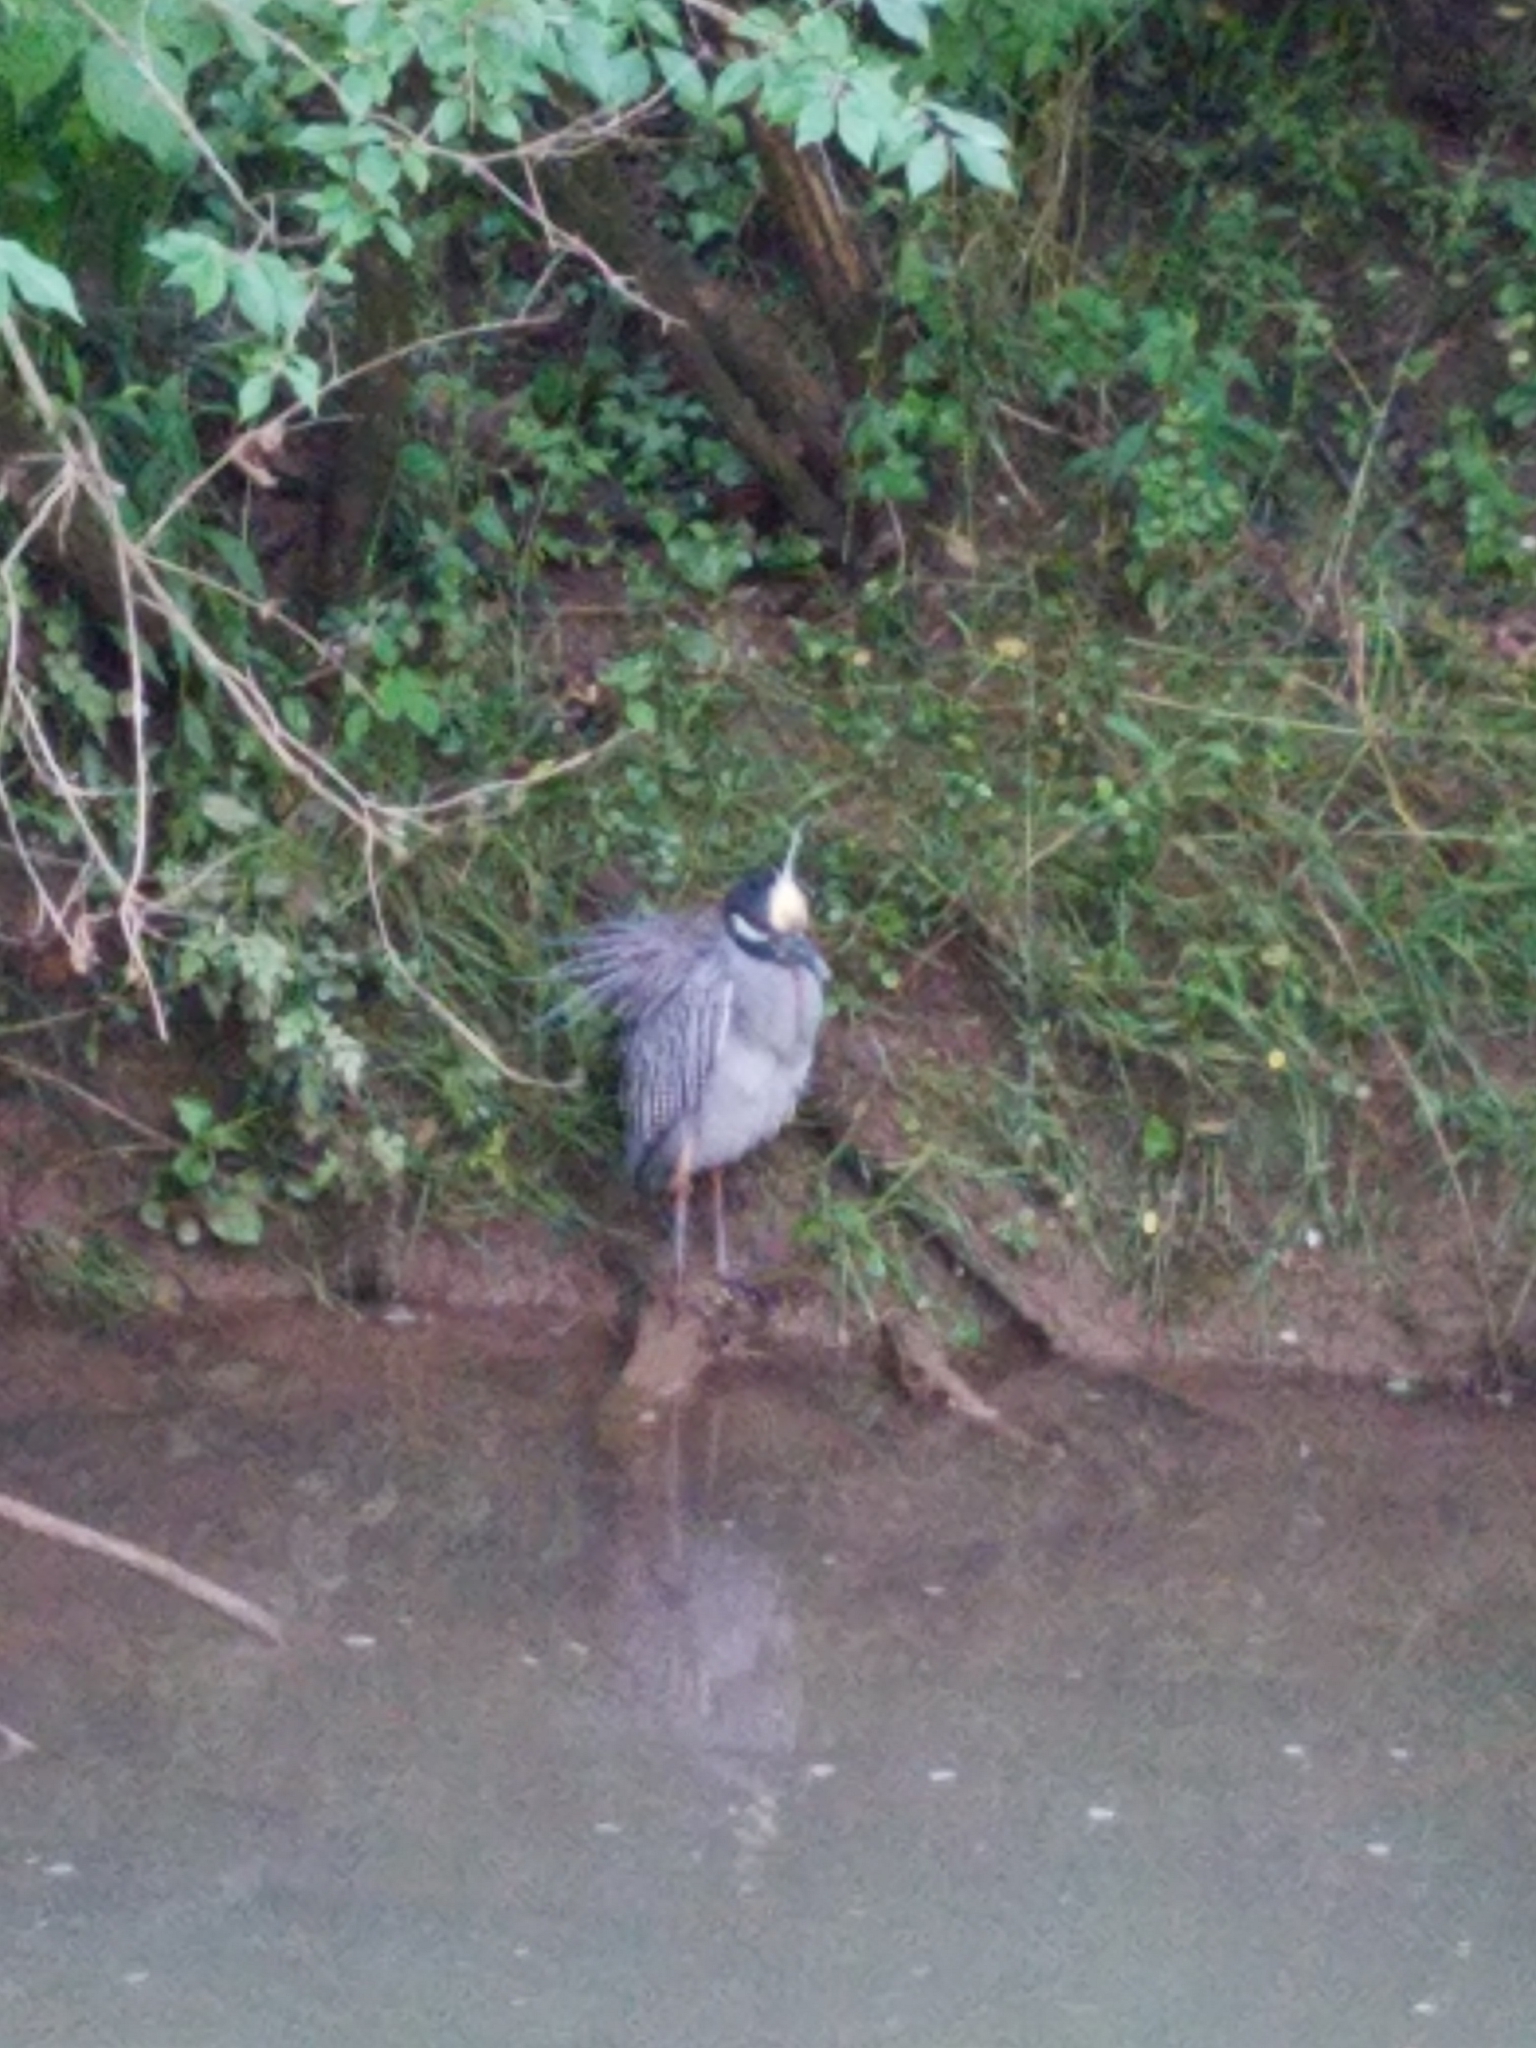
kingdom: Animalia
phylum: Chordata
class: Aves
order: Pelecaniformes
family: Ardeidae
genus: Nyctanassa
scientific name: Nyctanassa violacea
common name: Yellow-crowned night heron
